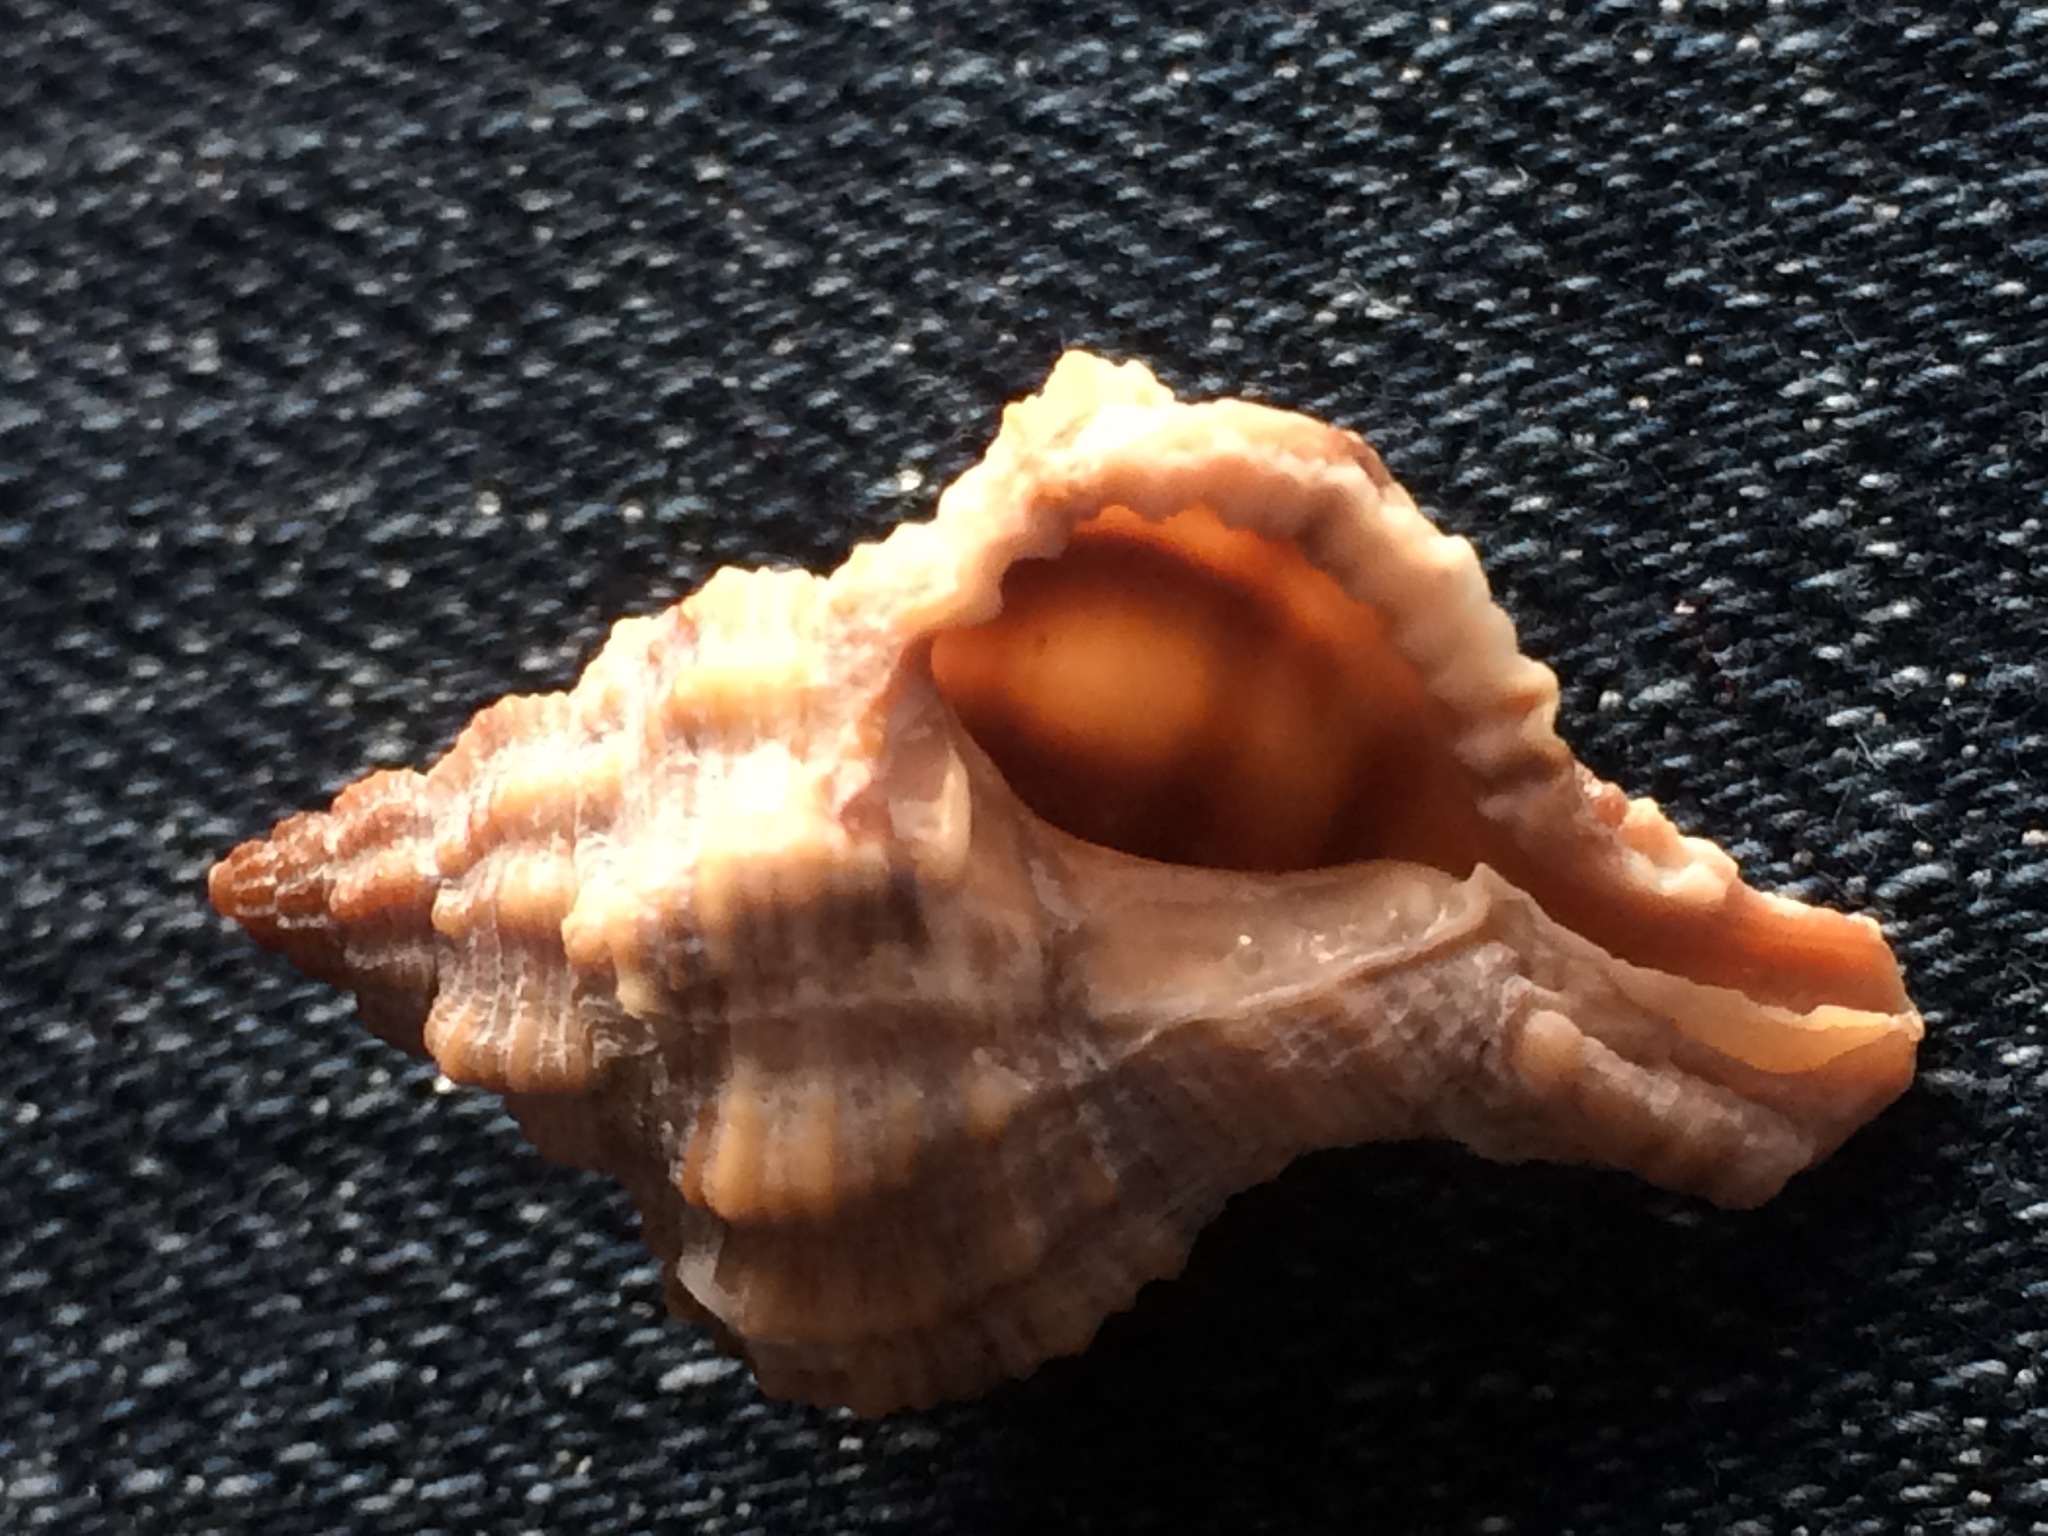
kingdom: Animalia
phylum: Mollusca
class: Gastropoda
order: Neogastropoda
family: Muricidae
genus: Phyllonotus
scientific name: Phyllonotus pomum
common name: Apple murex
